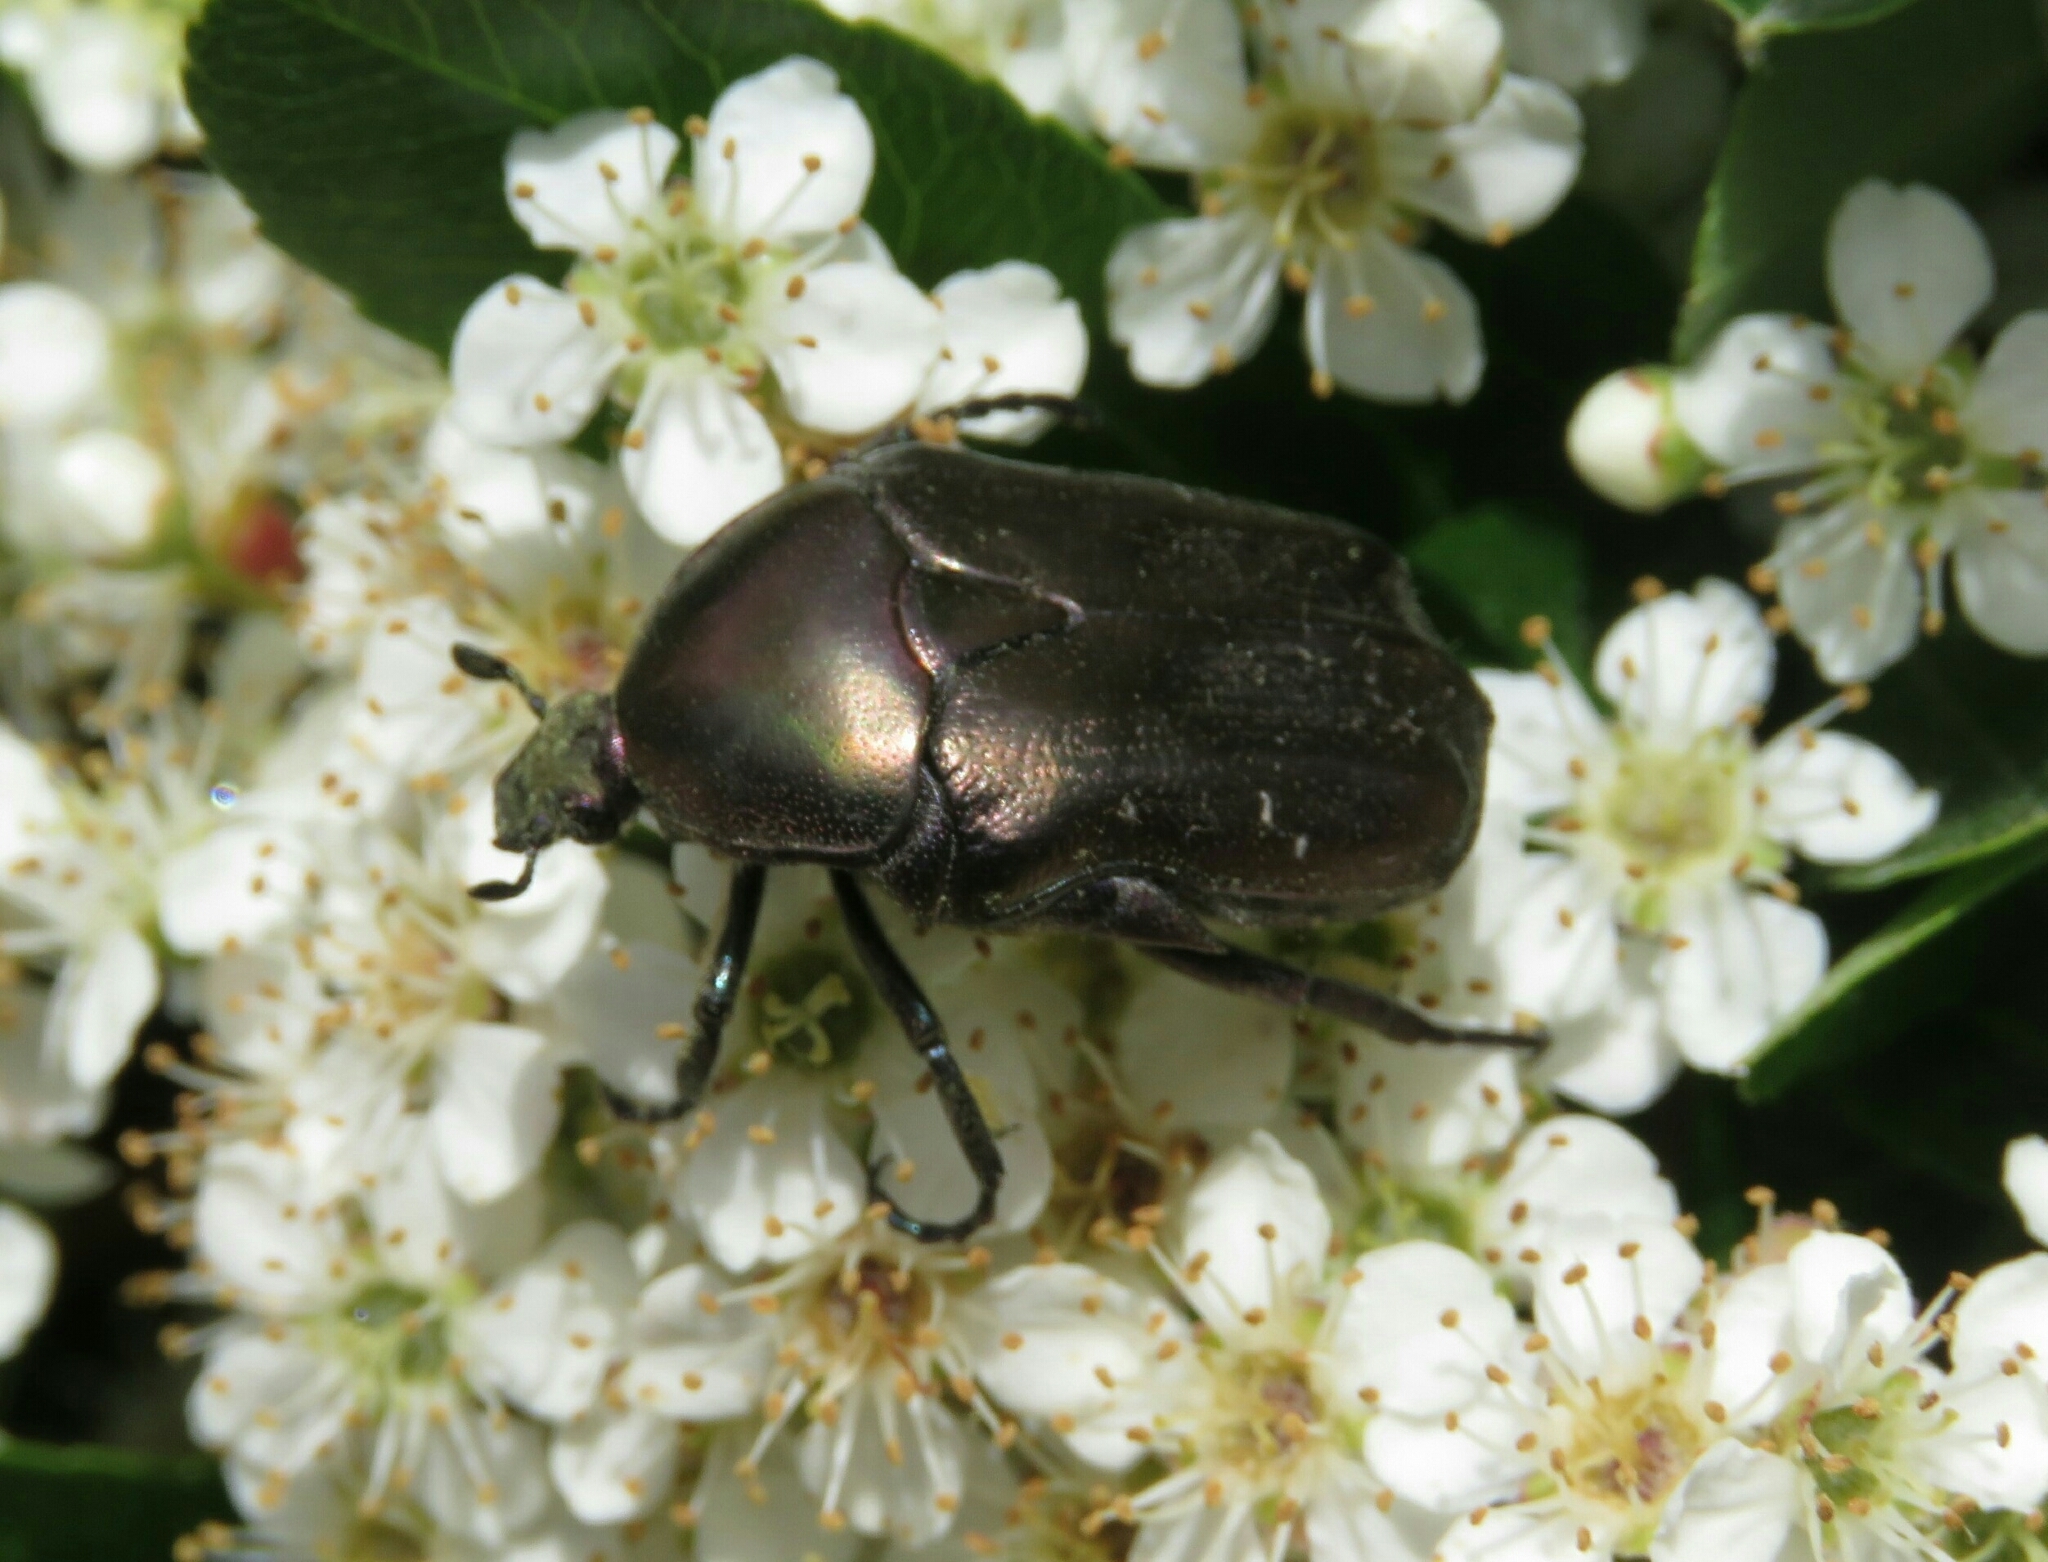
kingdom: Animalia
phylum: Arthropoda
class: Insecta
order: Coleoptera
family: Scarabaeidae
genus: Protaetia
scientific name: Protaetia cuprea
